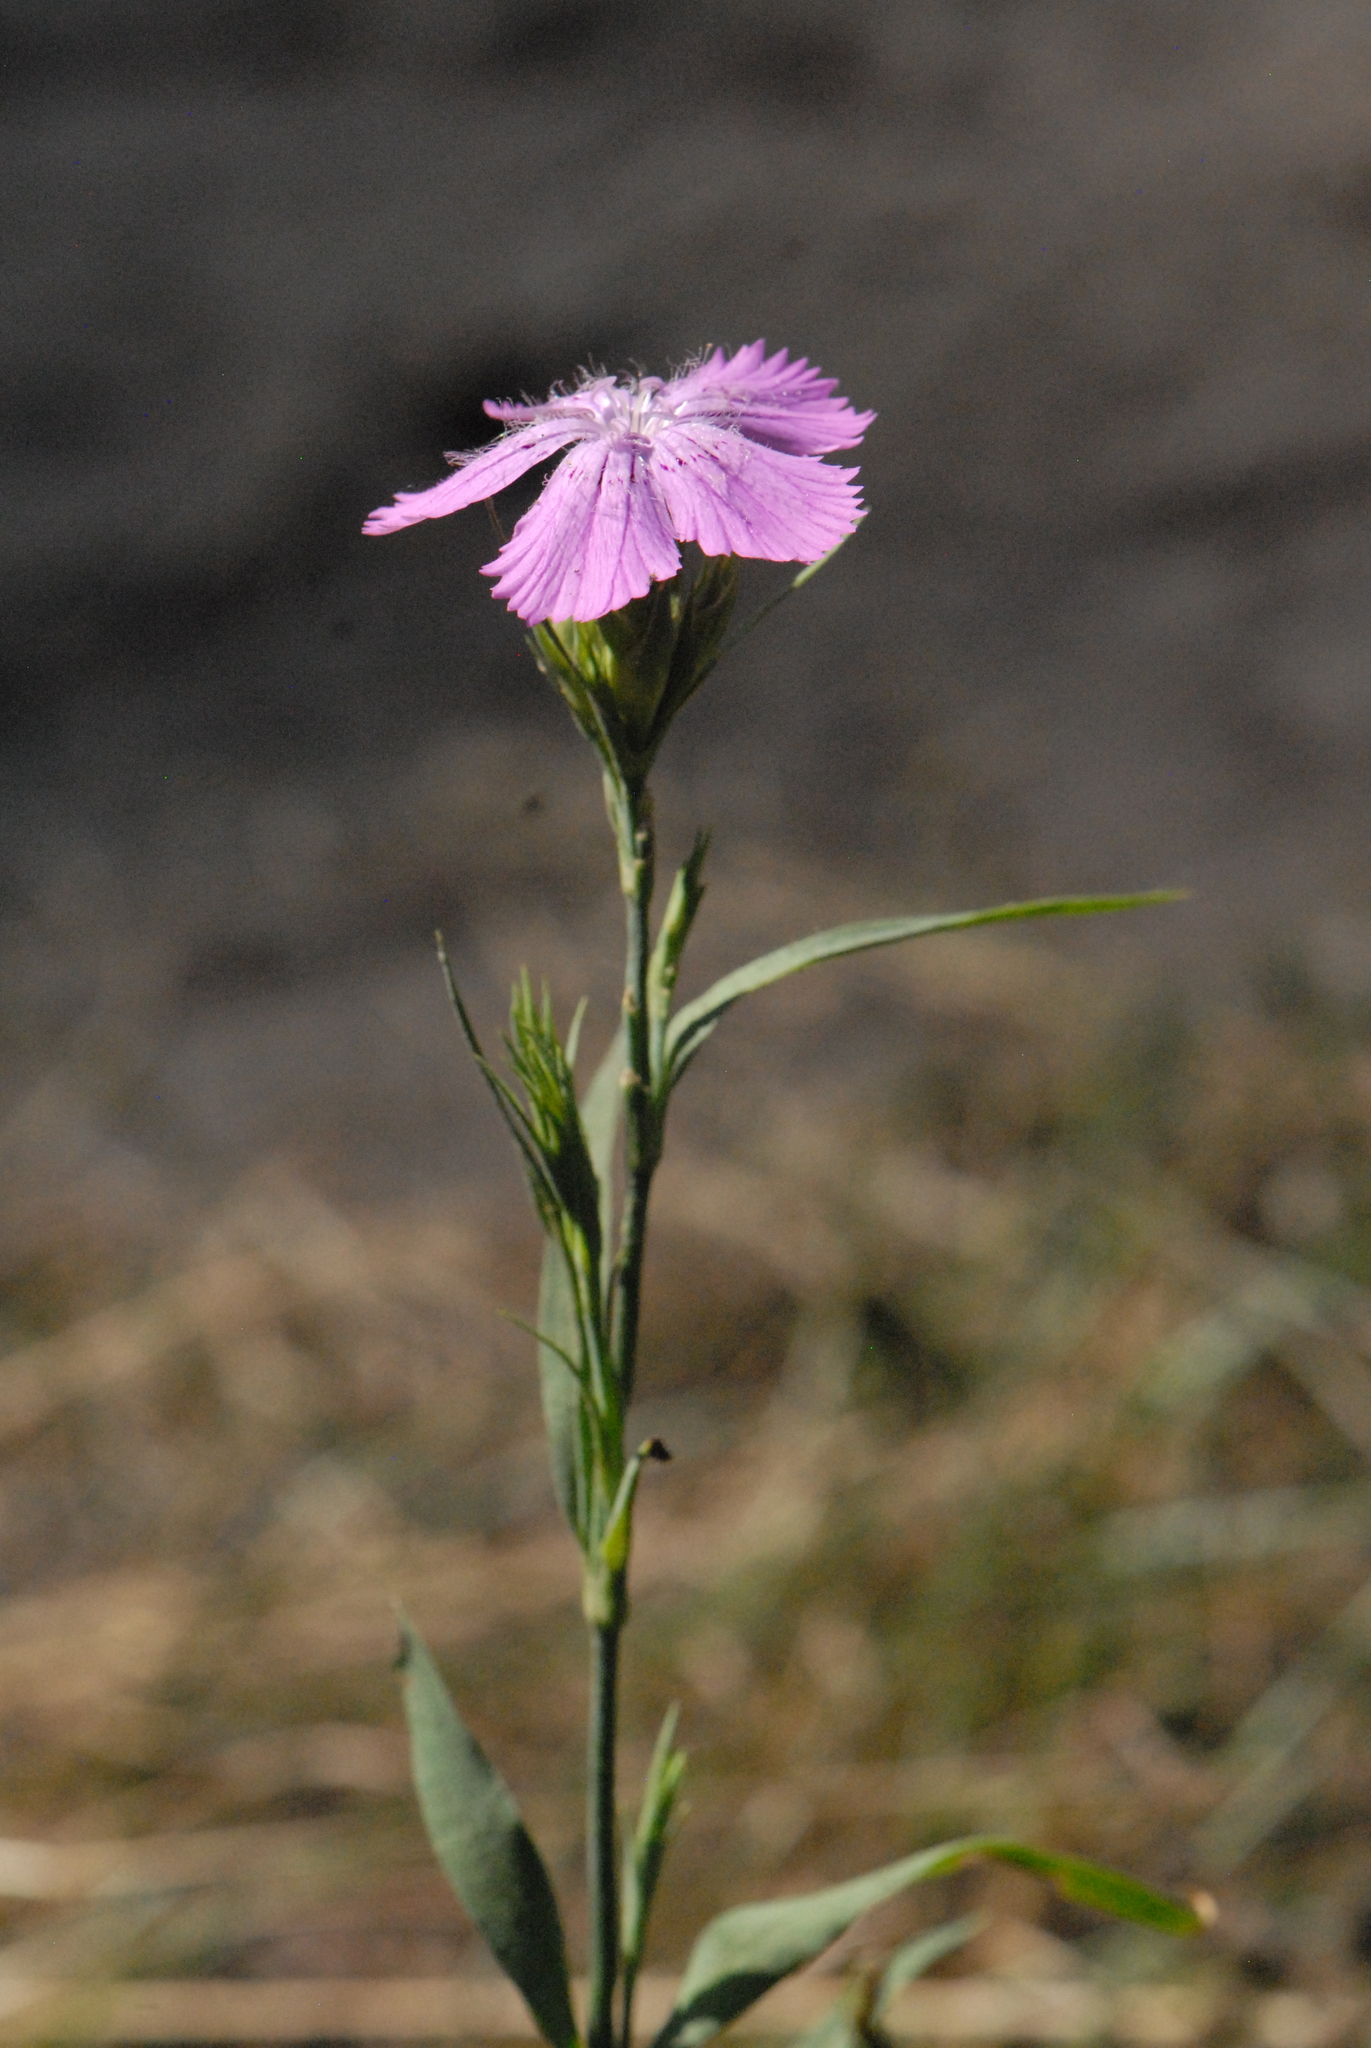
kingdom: Plantae
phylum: Tracheophyta
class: Magnoliopsida
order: Caryophyllales
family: Caryophyllaceae
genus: Dianthus
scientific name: Dianthus chinensis
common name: Rainbow pink
